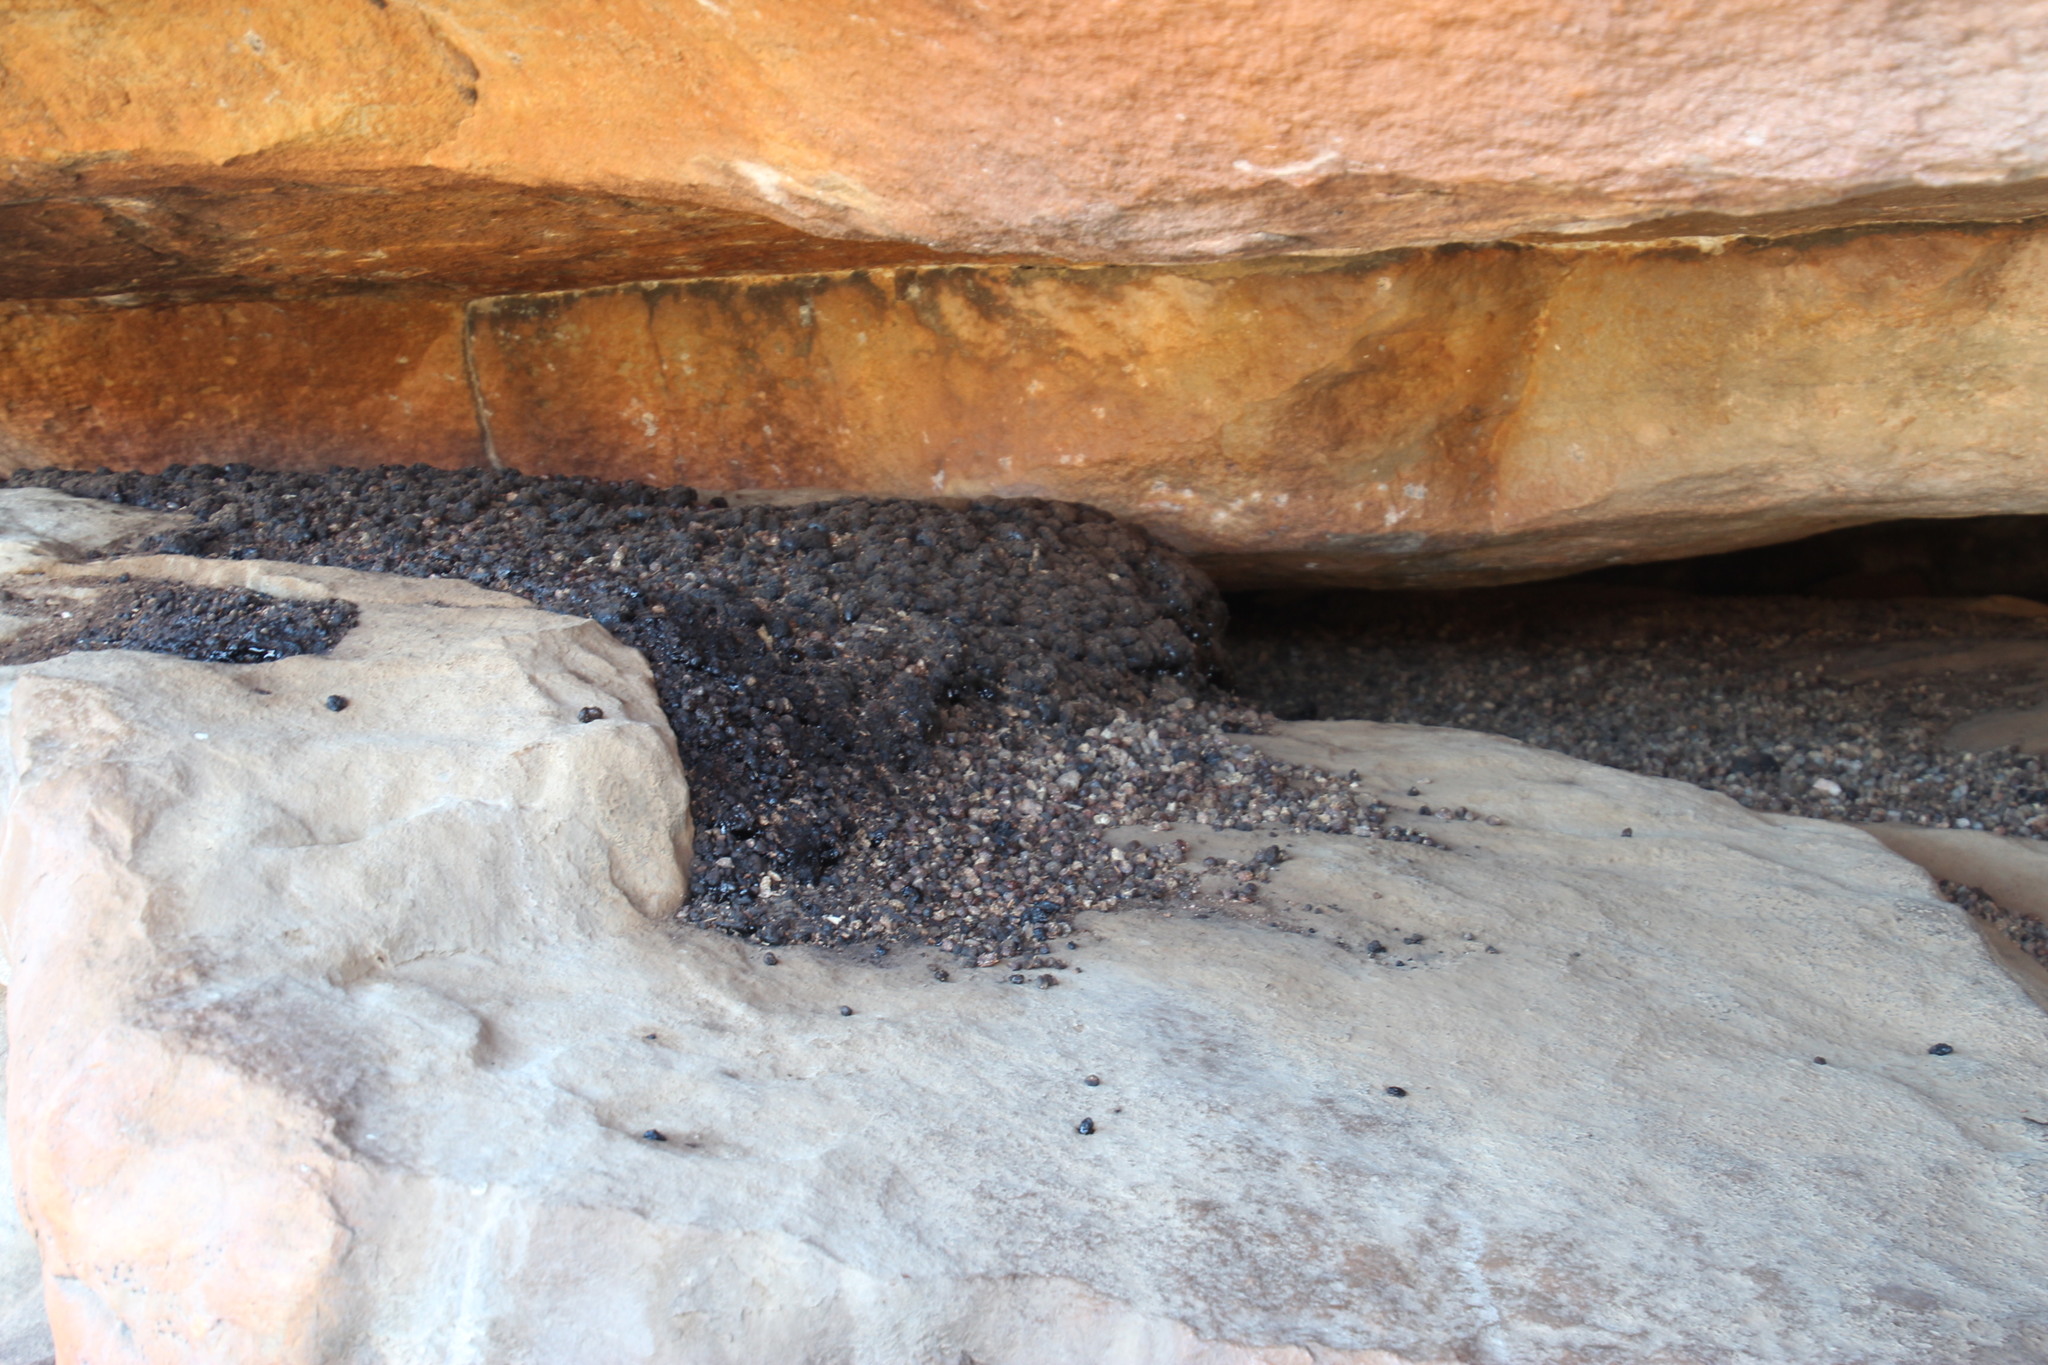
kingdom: Animalia
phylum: Chordata
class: Mammalia
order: Hyracoidea
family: Procaviidae
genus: Procavia
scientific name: Procavia capensis
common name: Rock hyrax
